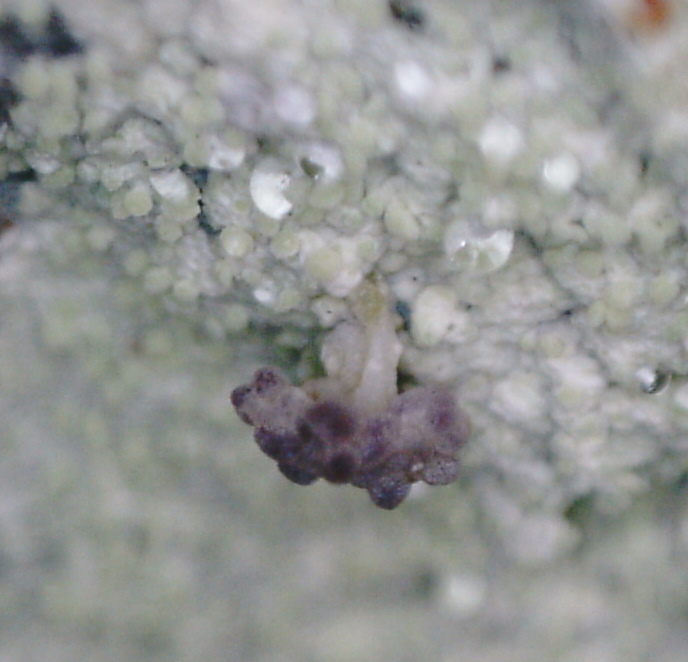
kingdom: Fungi
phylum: Ascomycota
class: Lecanoromycetes
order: Baeomycetales
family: Baeomycetaceae
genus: Baeomyces
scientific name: Baeomyces carneus
